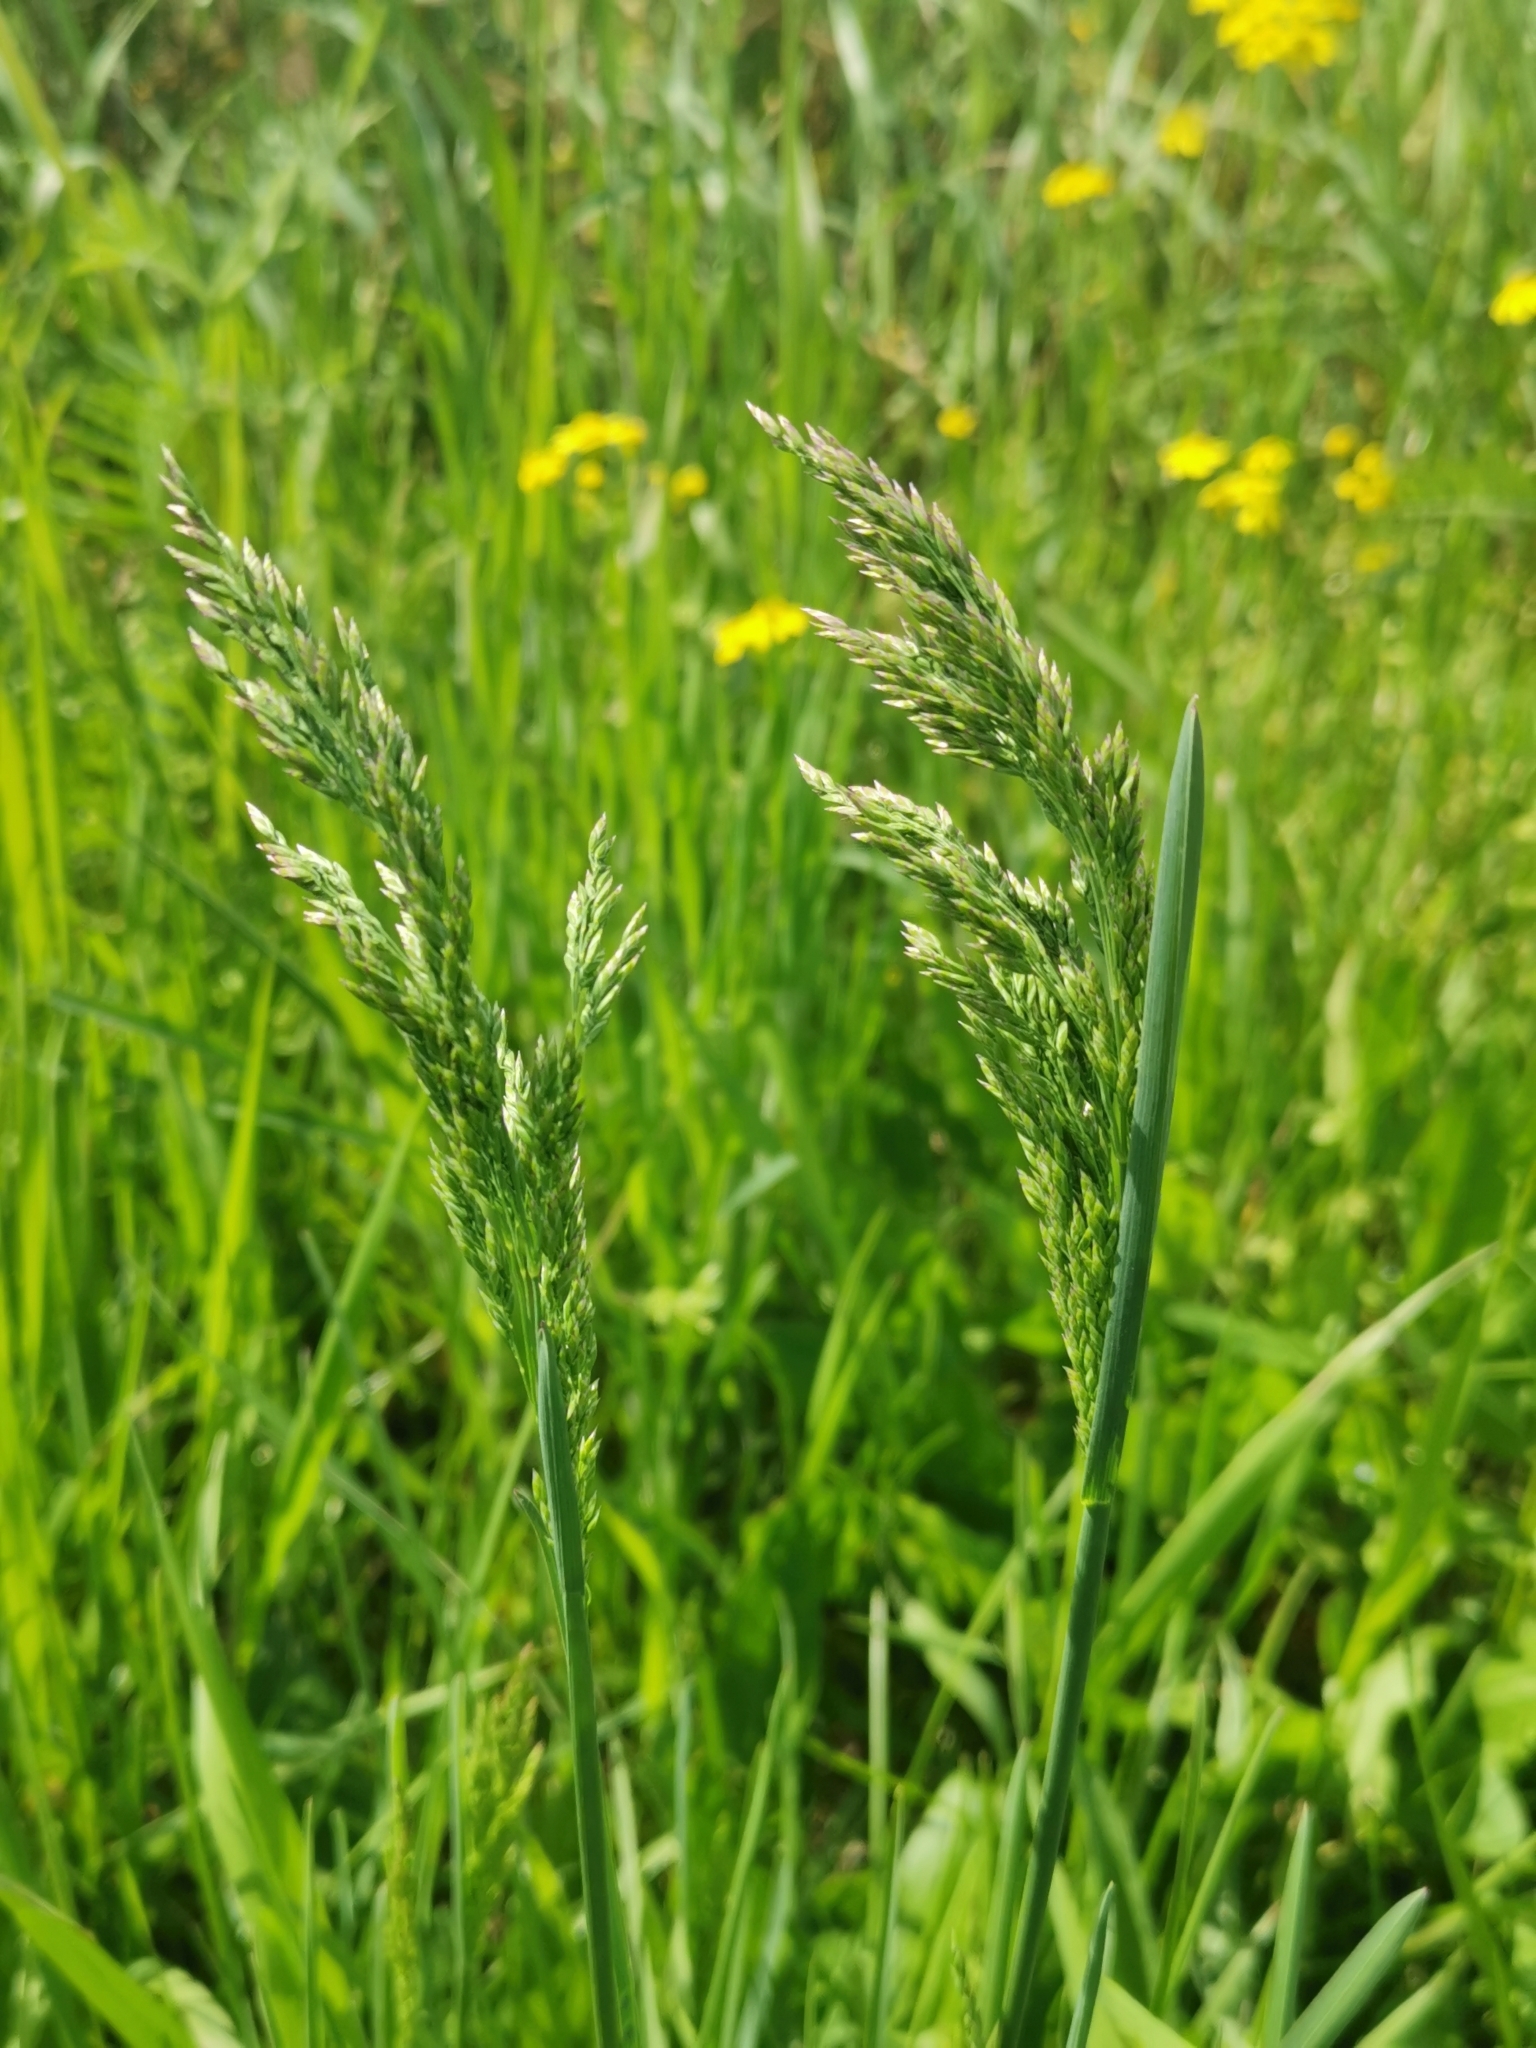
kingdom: Plantae
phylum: Tracheophyta
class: Liliopsida
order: Poales
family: Poaceae
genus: Poa
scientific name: Poa pratensis
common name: Kentucky bluegrass
